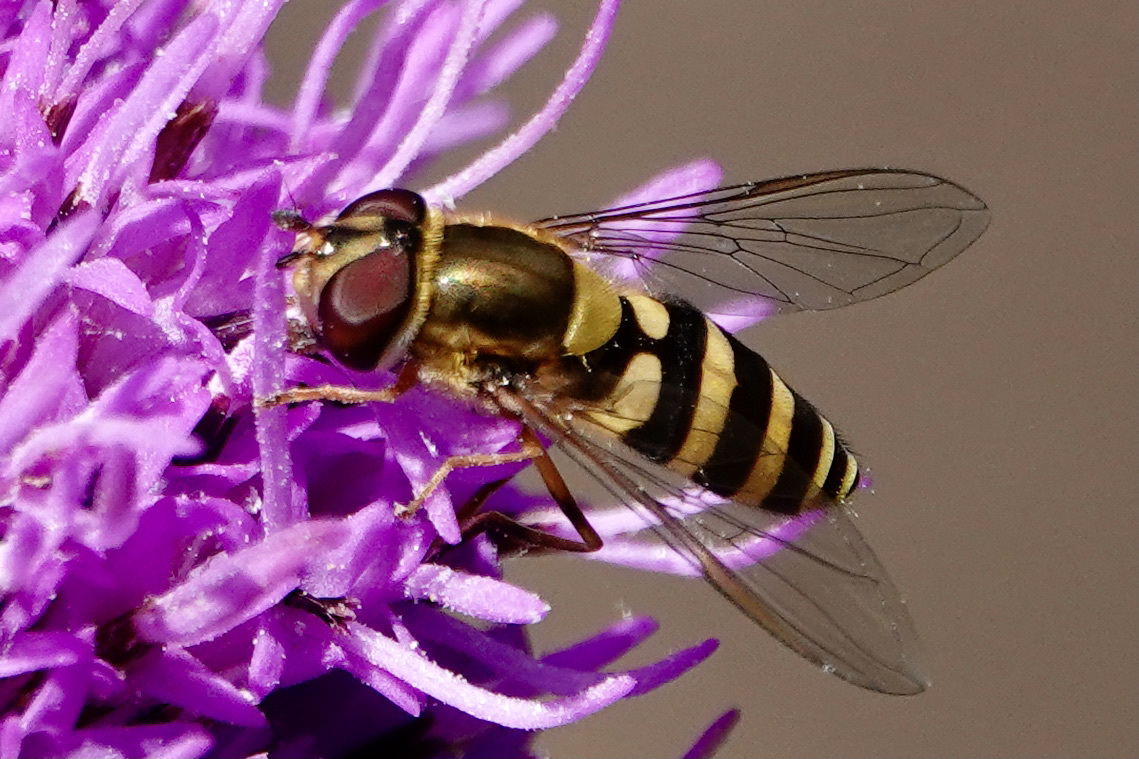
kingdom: Animalia
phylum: Arthropoda
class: Insecta
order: Diptera
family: Syrphidae
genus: Syrphus
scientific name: Syrphus rectus
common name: Yellow-legged flower fly
